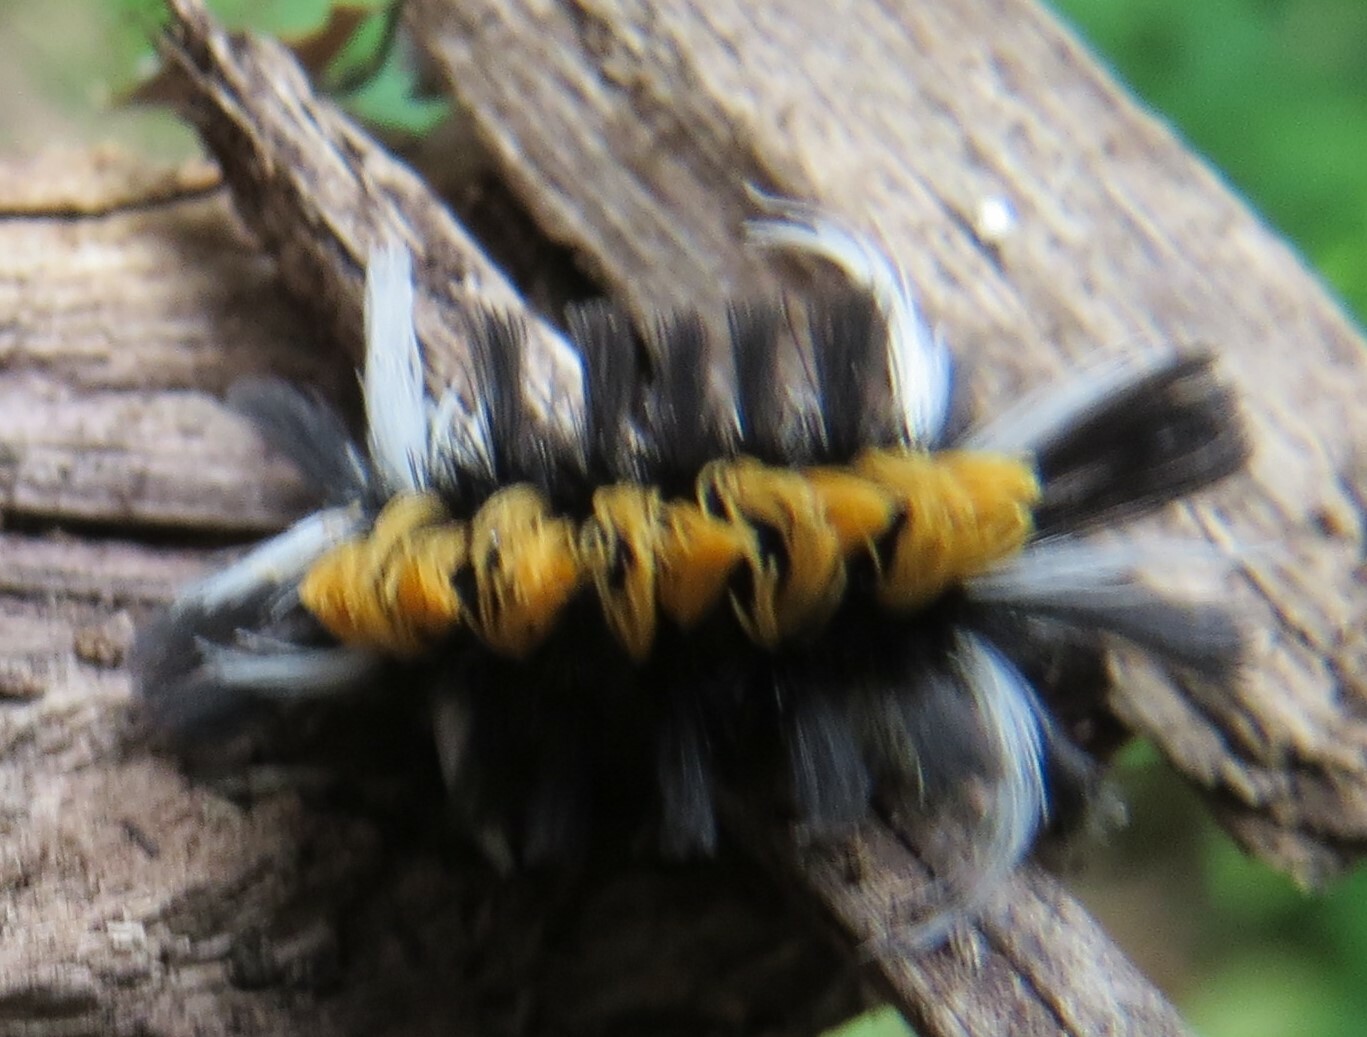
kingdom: Animalia
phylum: Arthropoda
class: Insecta
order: Lepidoptera
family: Erebidae
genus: Euchaetes
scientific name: Euchaetes egle
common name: Milkweed tussock moth
